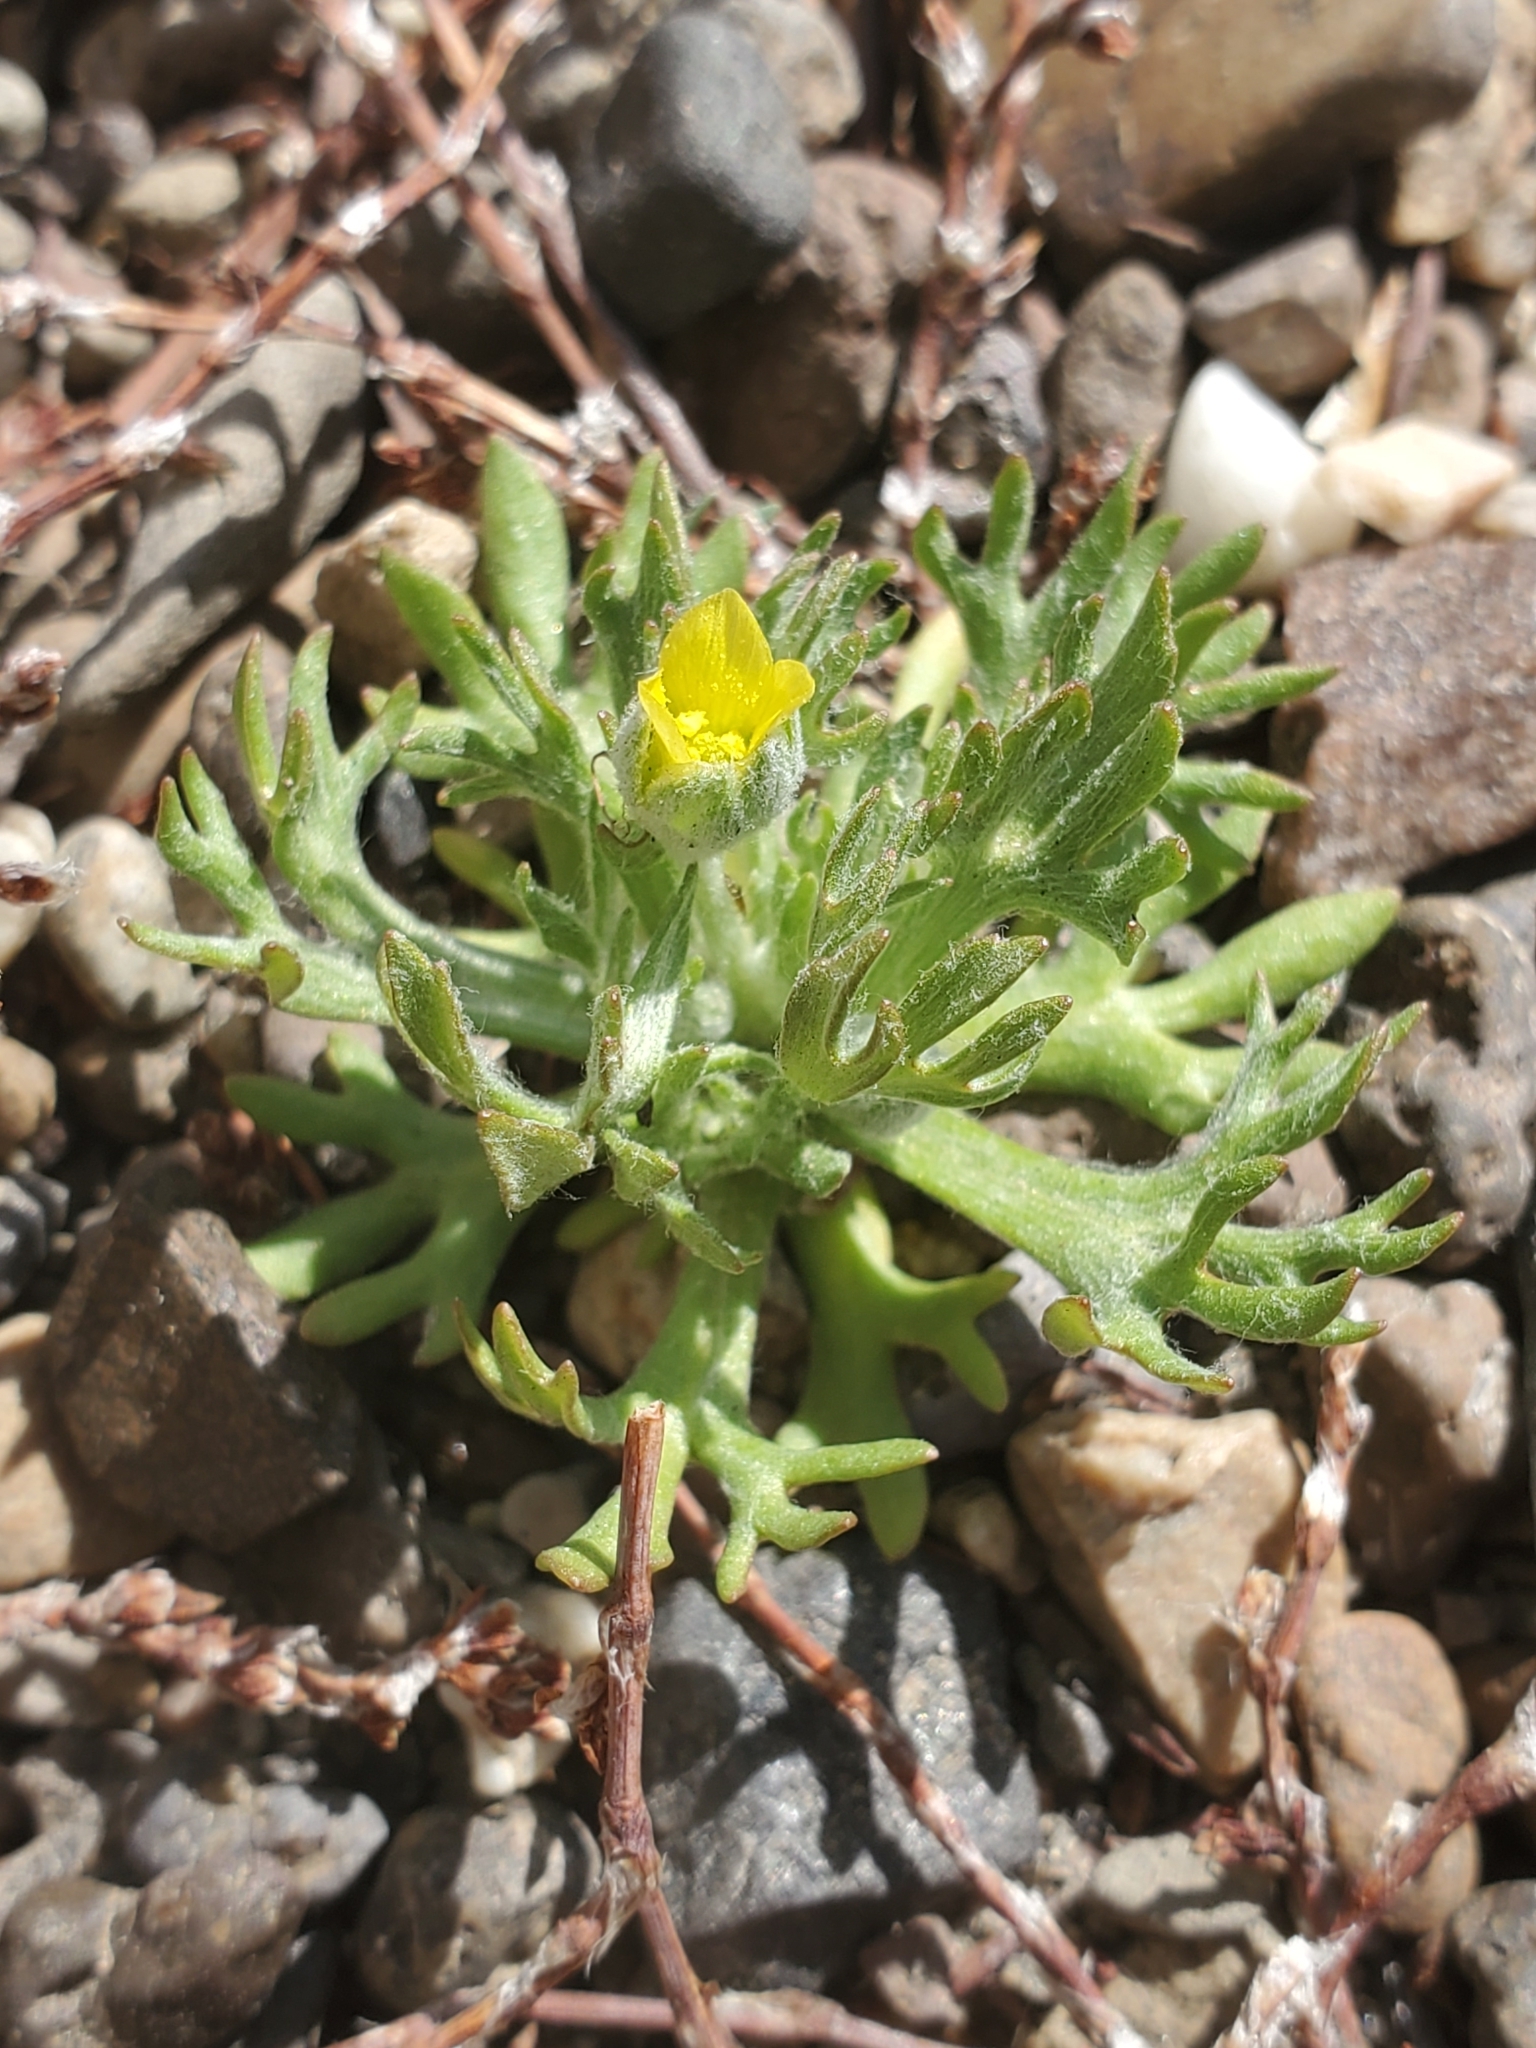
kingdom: Plantae
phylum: Tracheophyta
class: Magnoliopsida
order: Ranunculales
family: Ranunculaceae
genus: Ceratocephala
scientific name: Ceratocephala orthoceras
